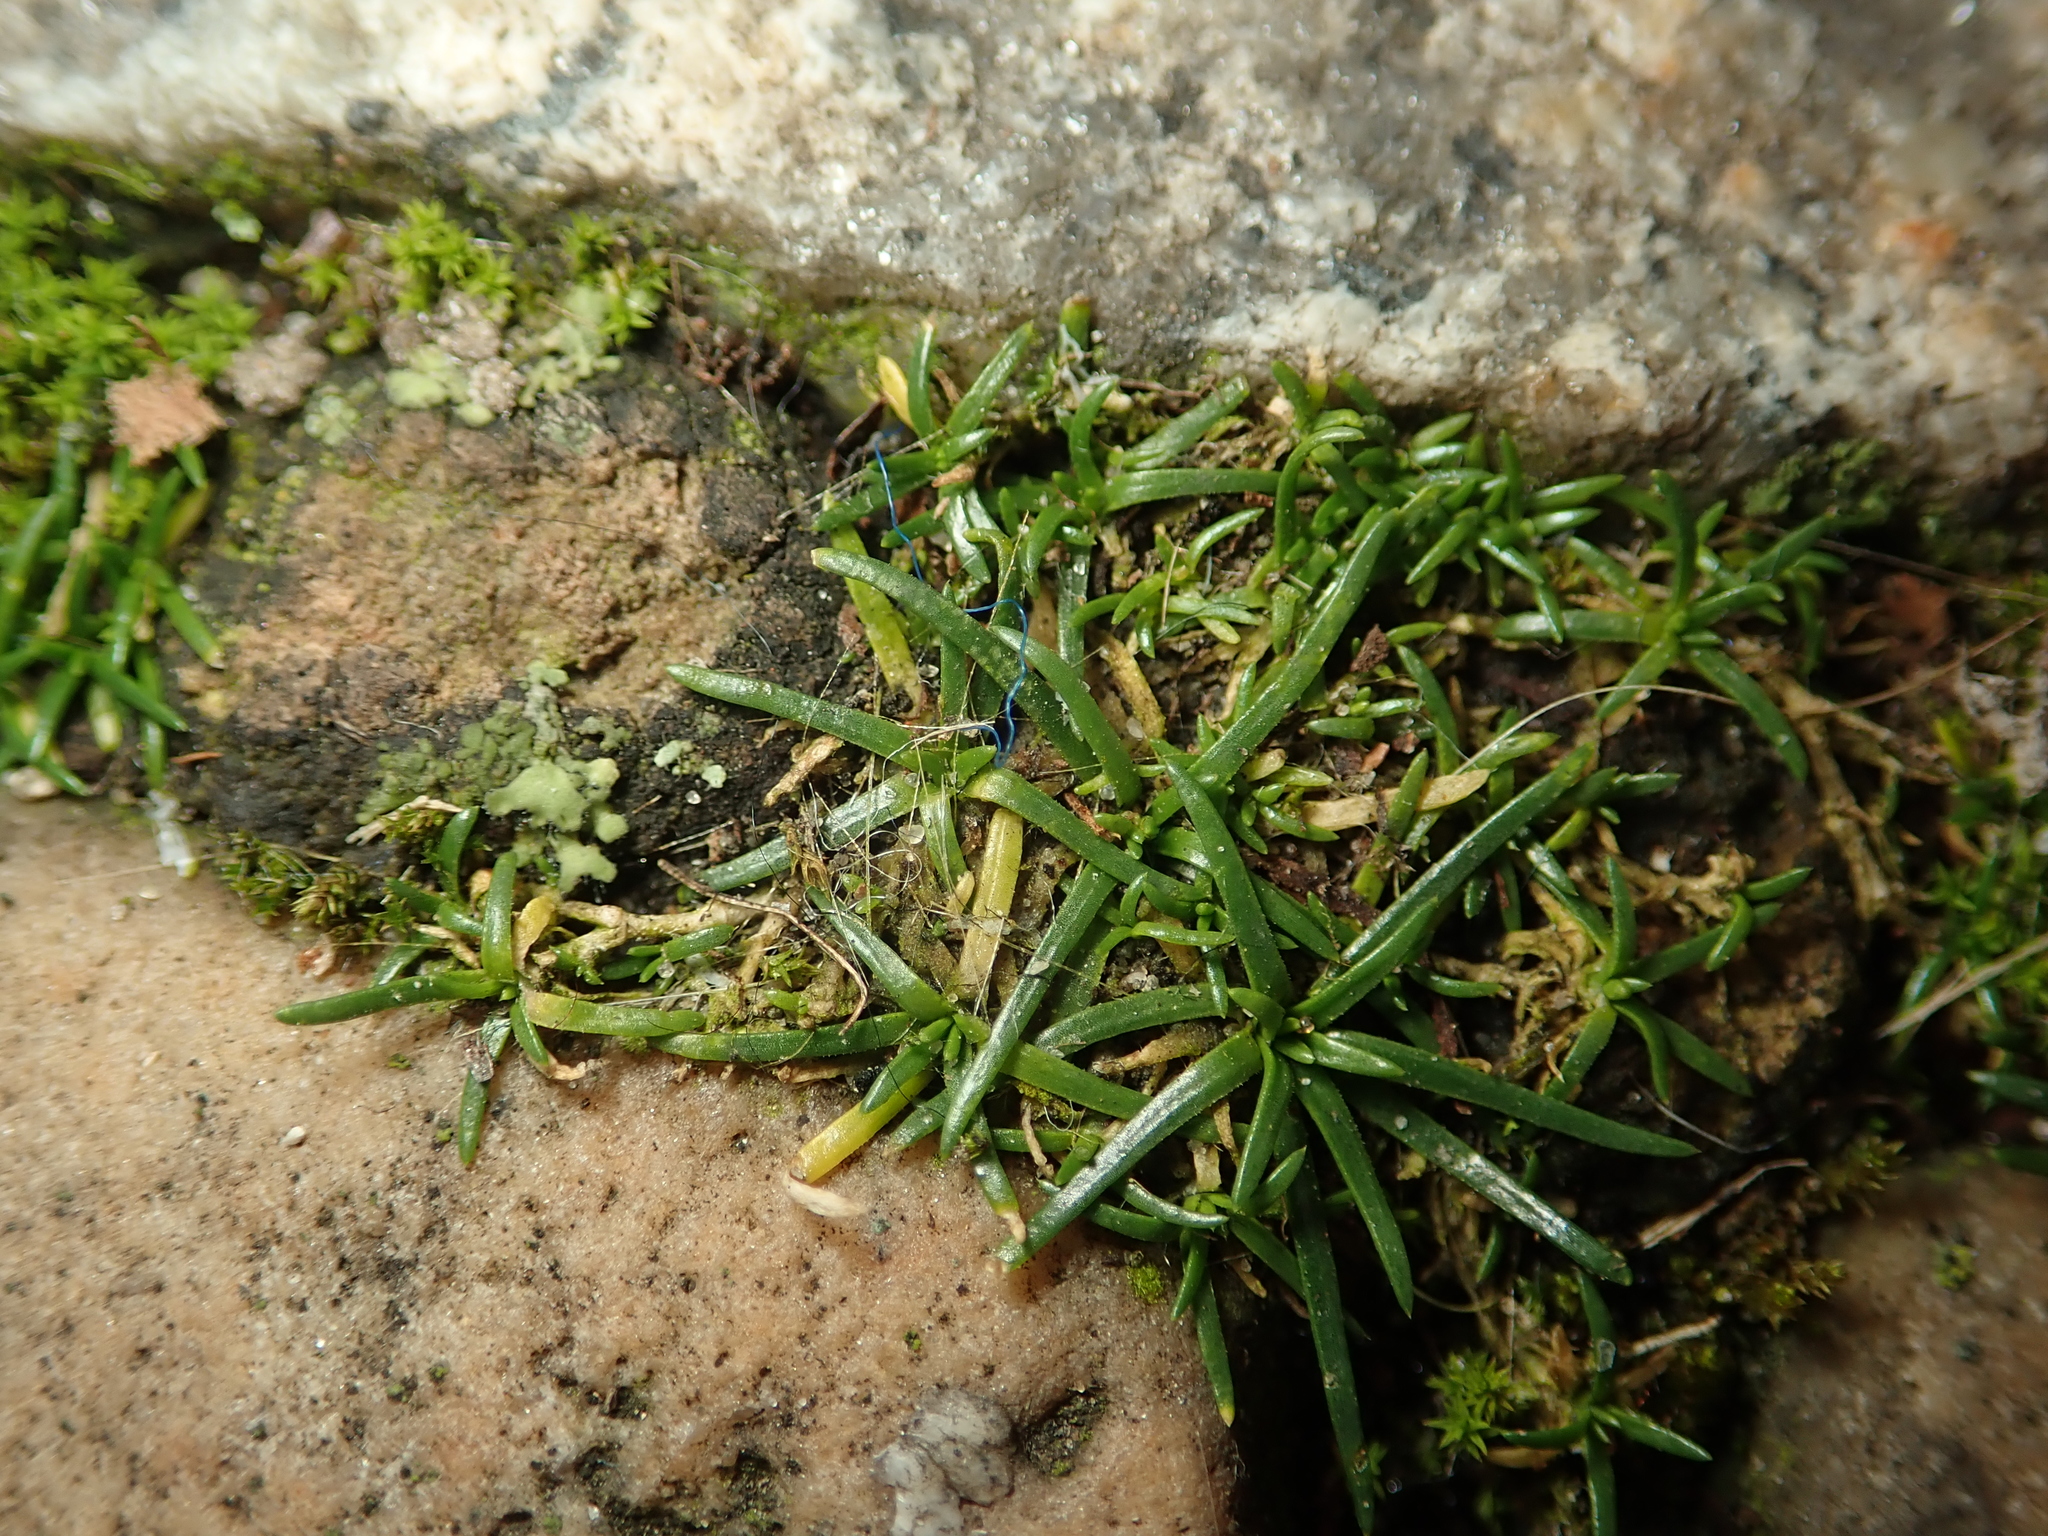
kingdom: Plantae
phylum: Tracheophyta
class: Magnoliopsida
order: Caryophyllales
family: Caryophyllaceae
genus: Sagina
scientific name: Sagina procumbens
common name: Procumbent pearlwort
